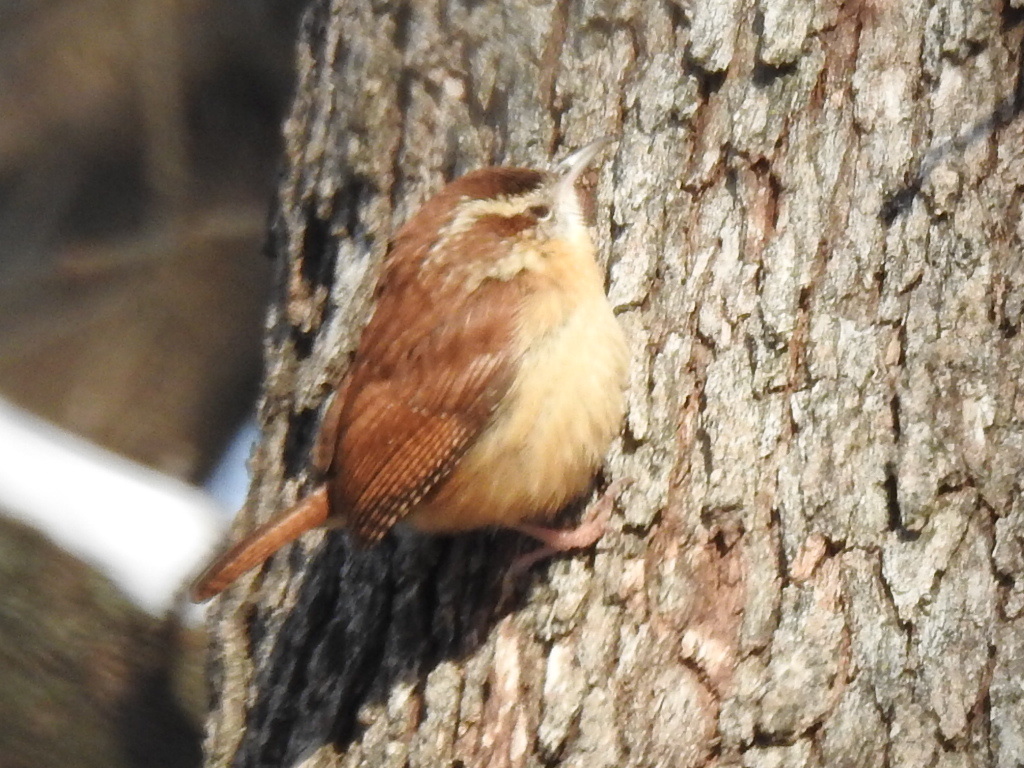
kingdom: Animalia
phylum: Chordata
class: Aves
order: Passeriformes
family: Troglodytidae
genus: Thryothorus
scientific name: Thryothorus ludovicianus
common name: Carolina wren
